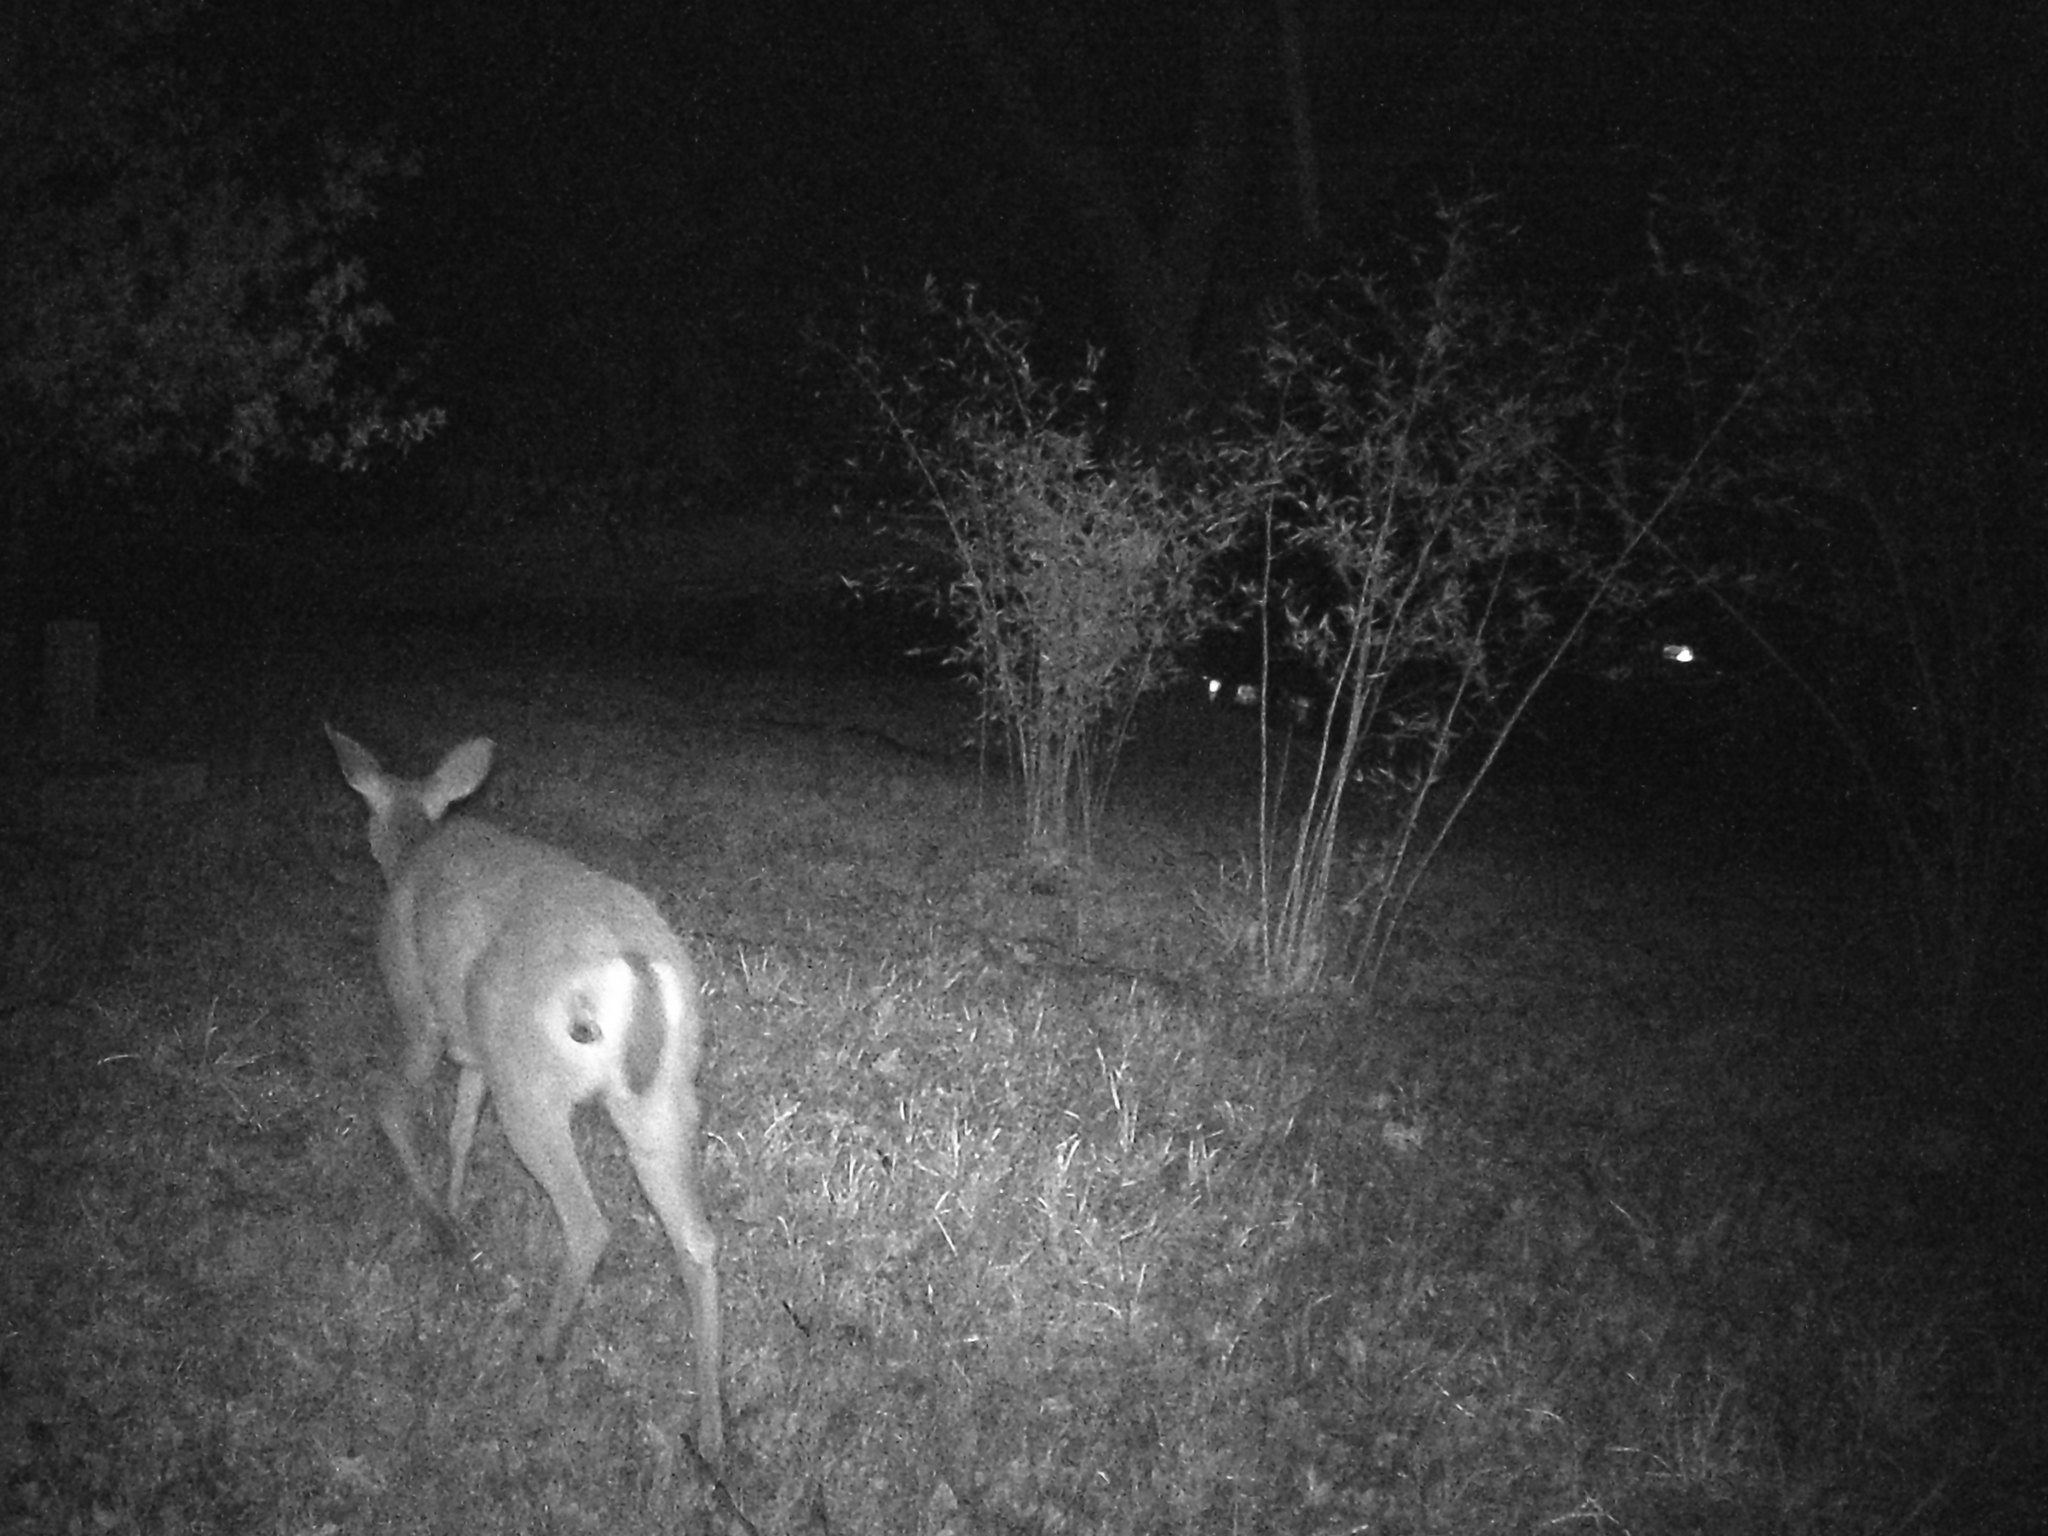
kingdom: Animalia
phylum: Chordata
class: Mammalia
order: Artiodactyla
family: Cervidae
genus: Odocoileus
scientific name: Odocoileus hemionus
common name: Mule deer
